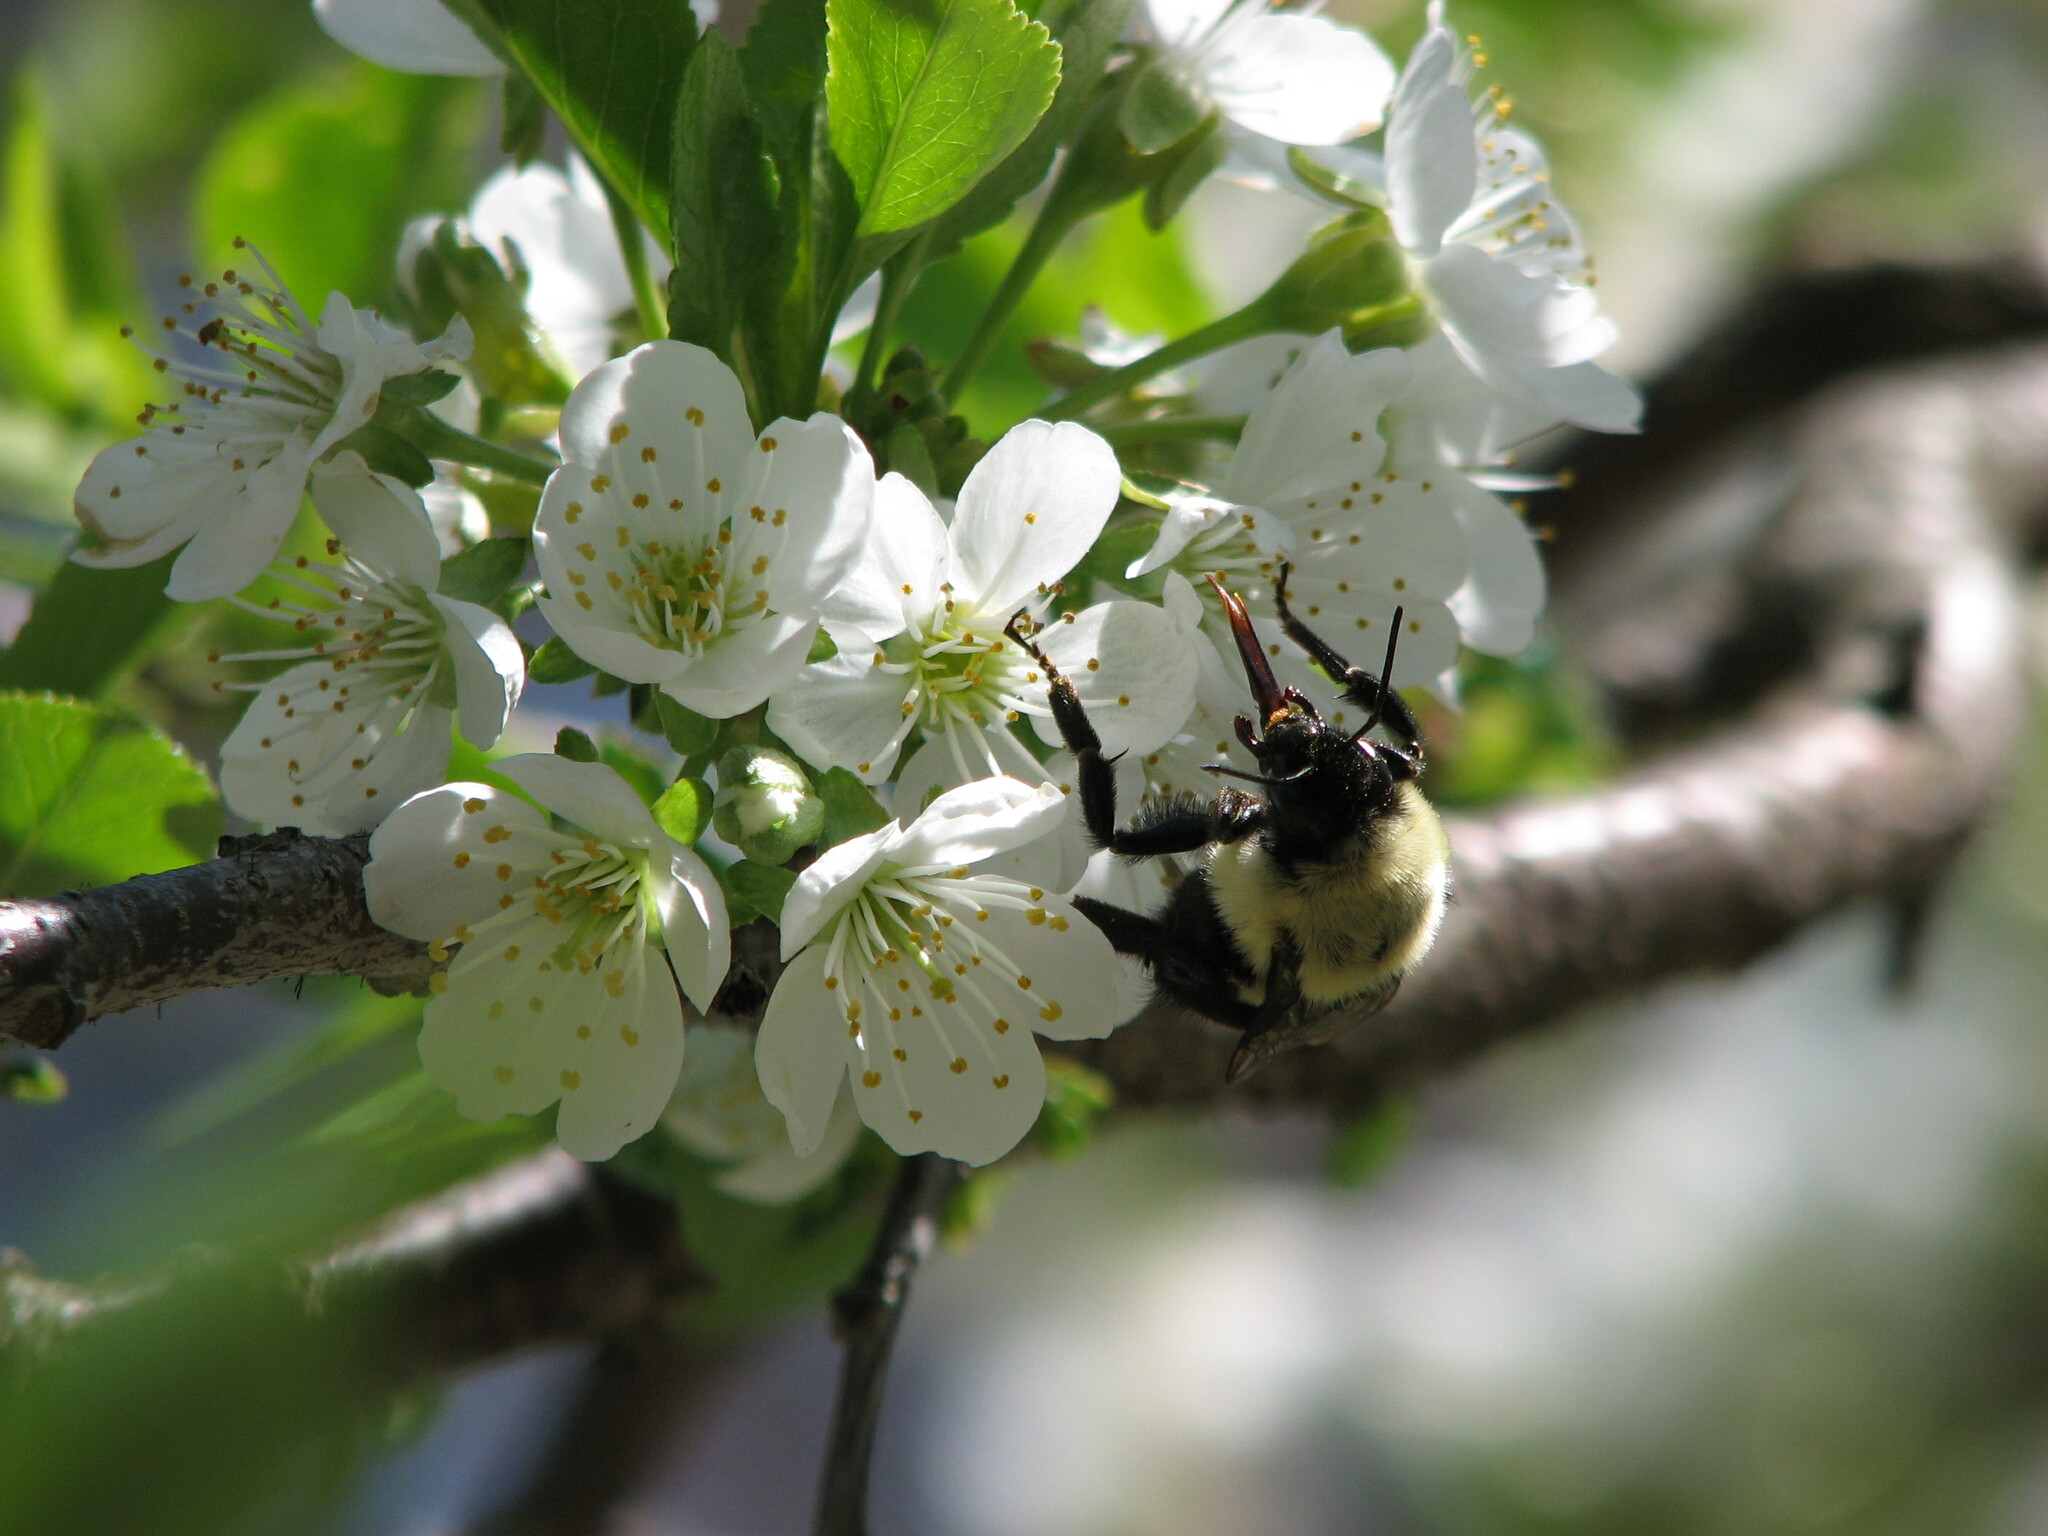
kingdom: Animalia
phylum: Arthropoda
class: Insecta
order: Hymenoptera
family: Apidae
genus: Bombus
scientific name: Bombus impatiens
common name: Common eastern bumble bee
